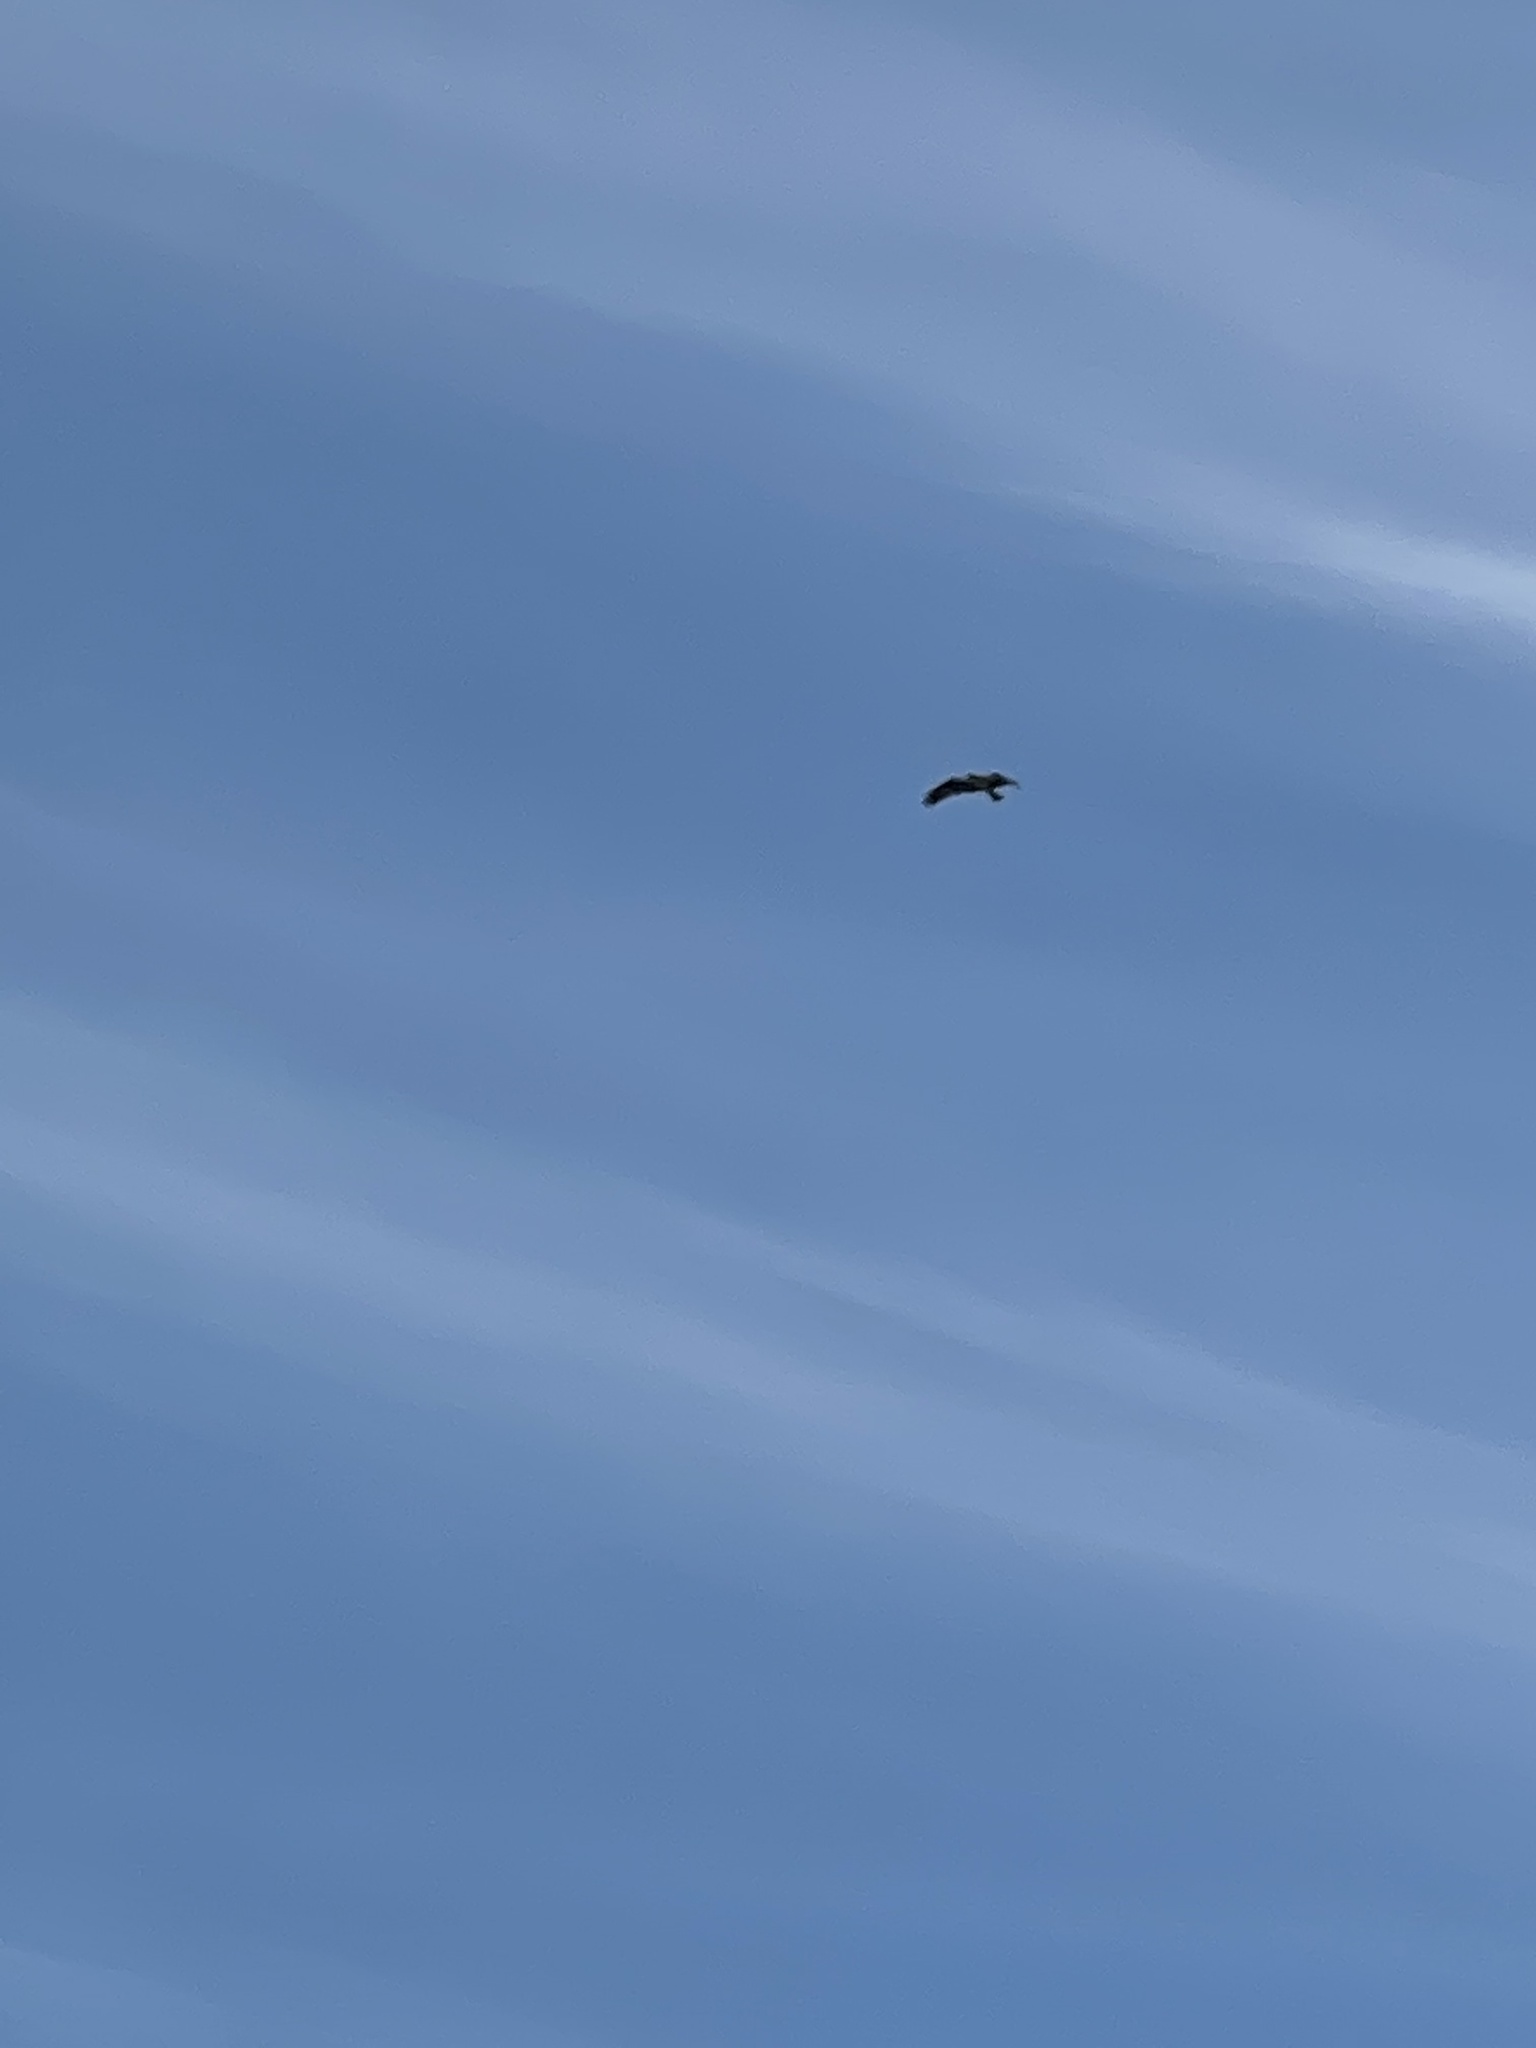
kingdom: Animalia
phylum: Chordata
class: Aves
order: Accipitriformes
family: Pandionidae
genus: Pandion
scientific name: Pandion haliaetus
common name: Osprey
